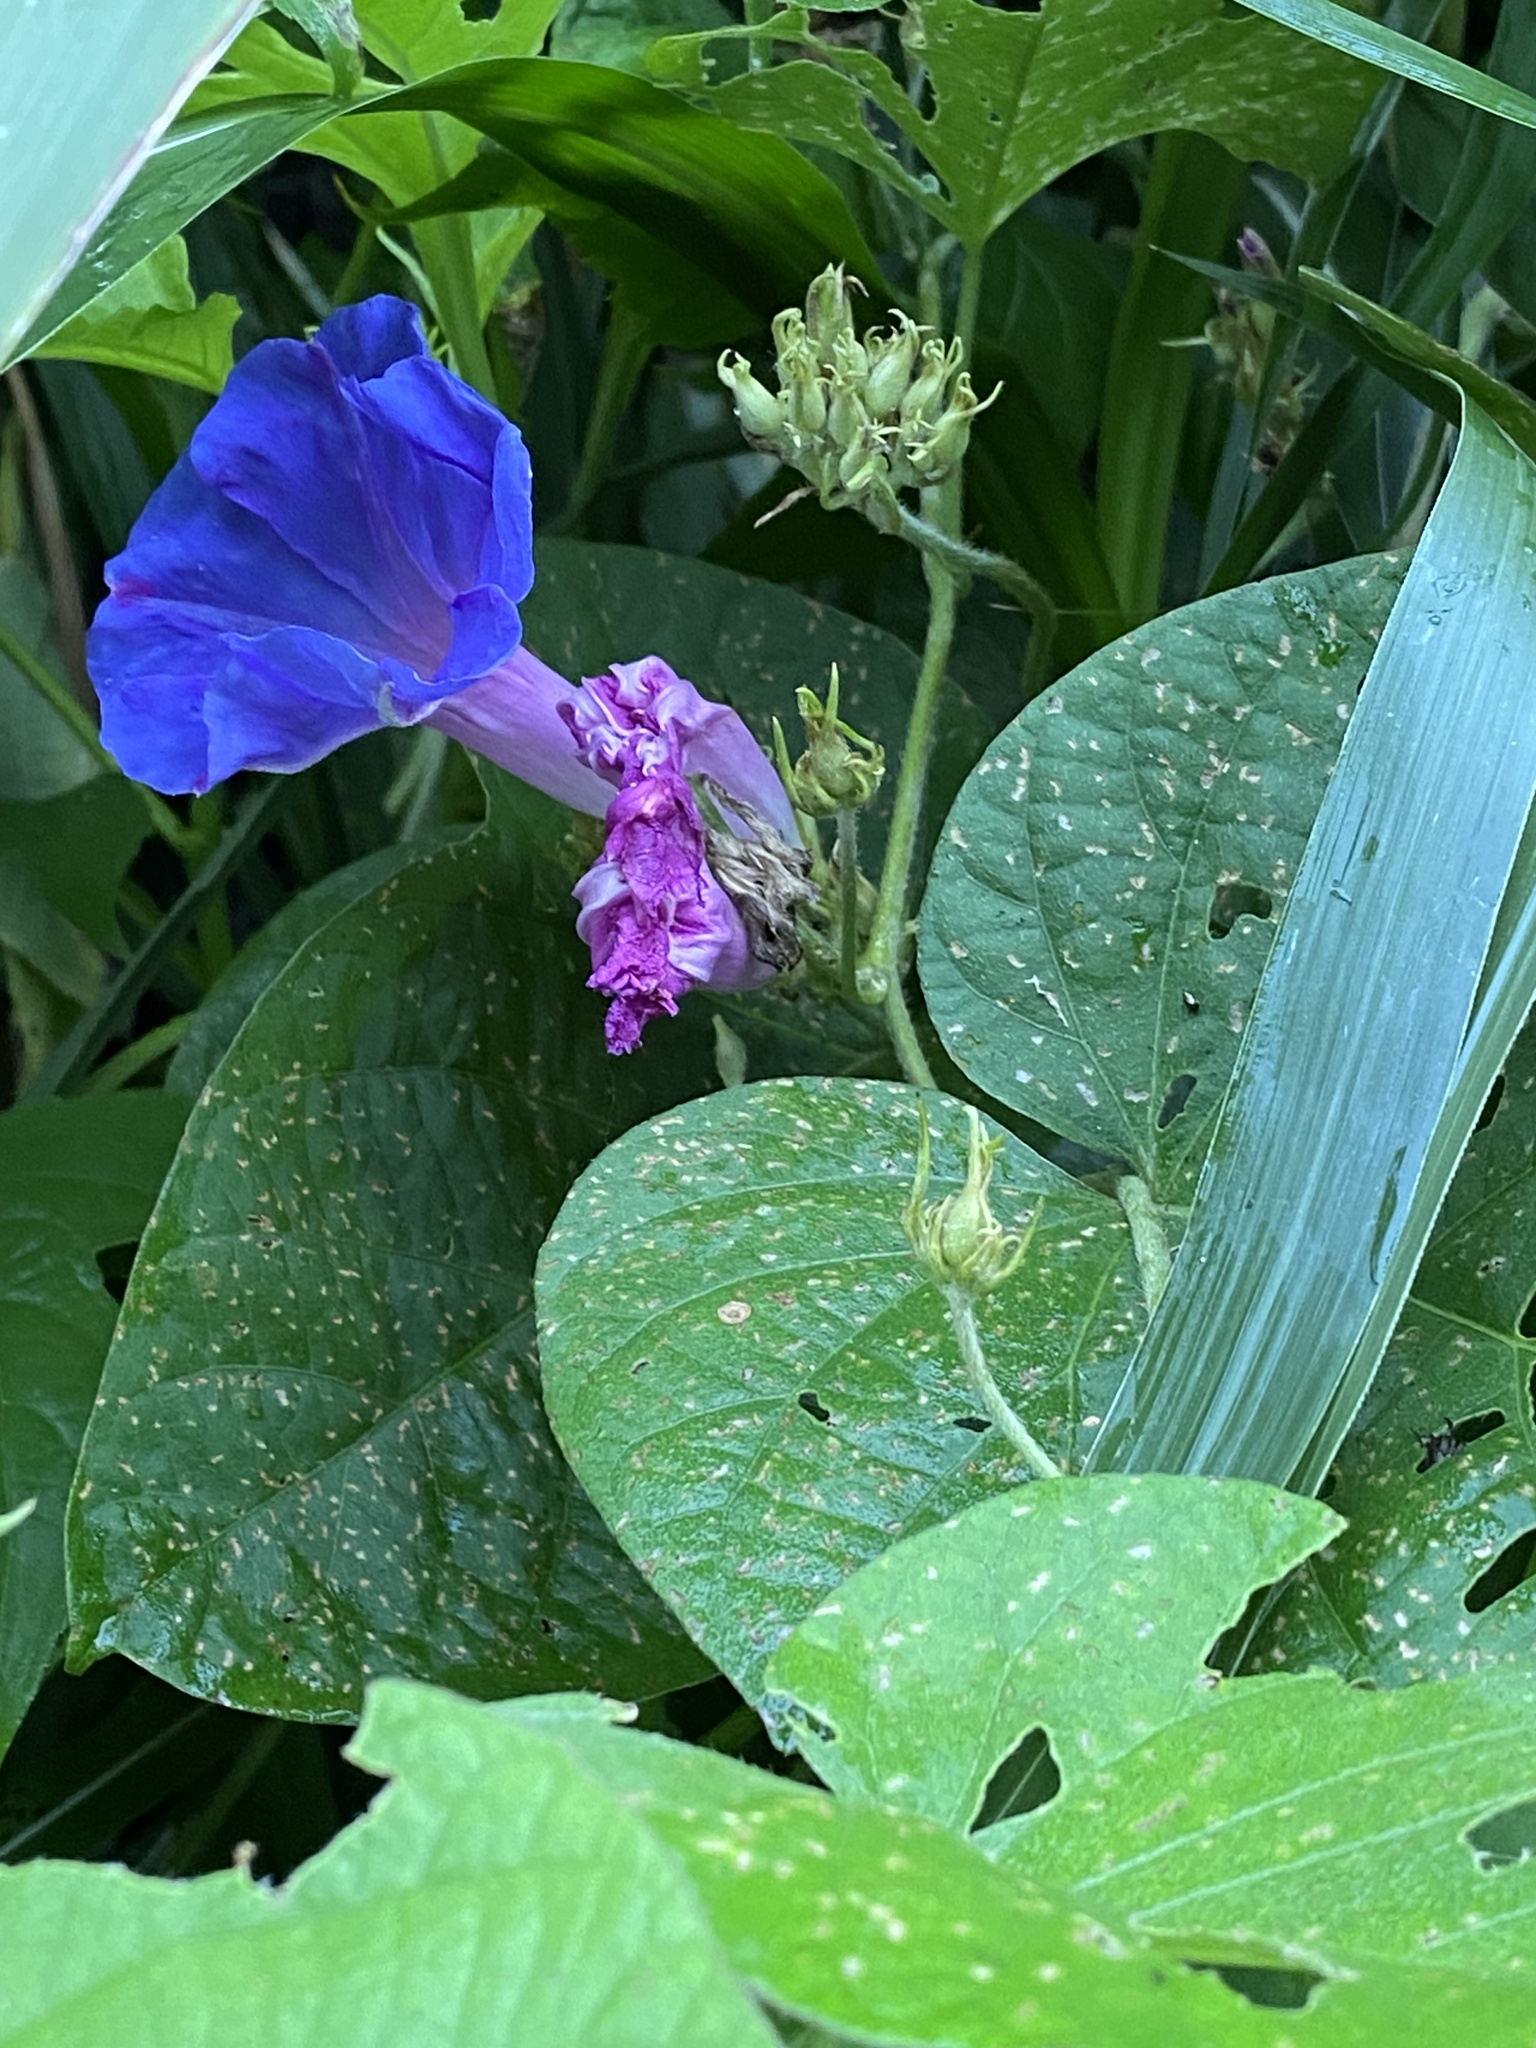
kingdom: Plantae
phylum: Tracheophyta
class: Magnoliopsida
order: Solanales
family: Convolvulaceae
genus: Ipomoea
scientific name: Ipomoea indica
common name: Blue dawnflower
